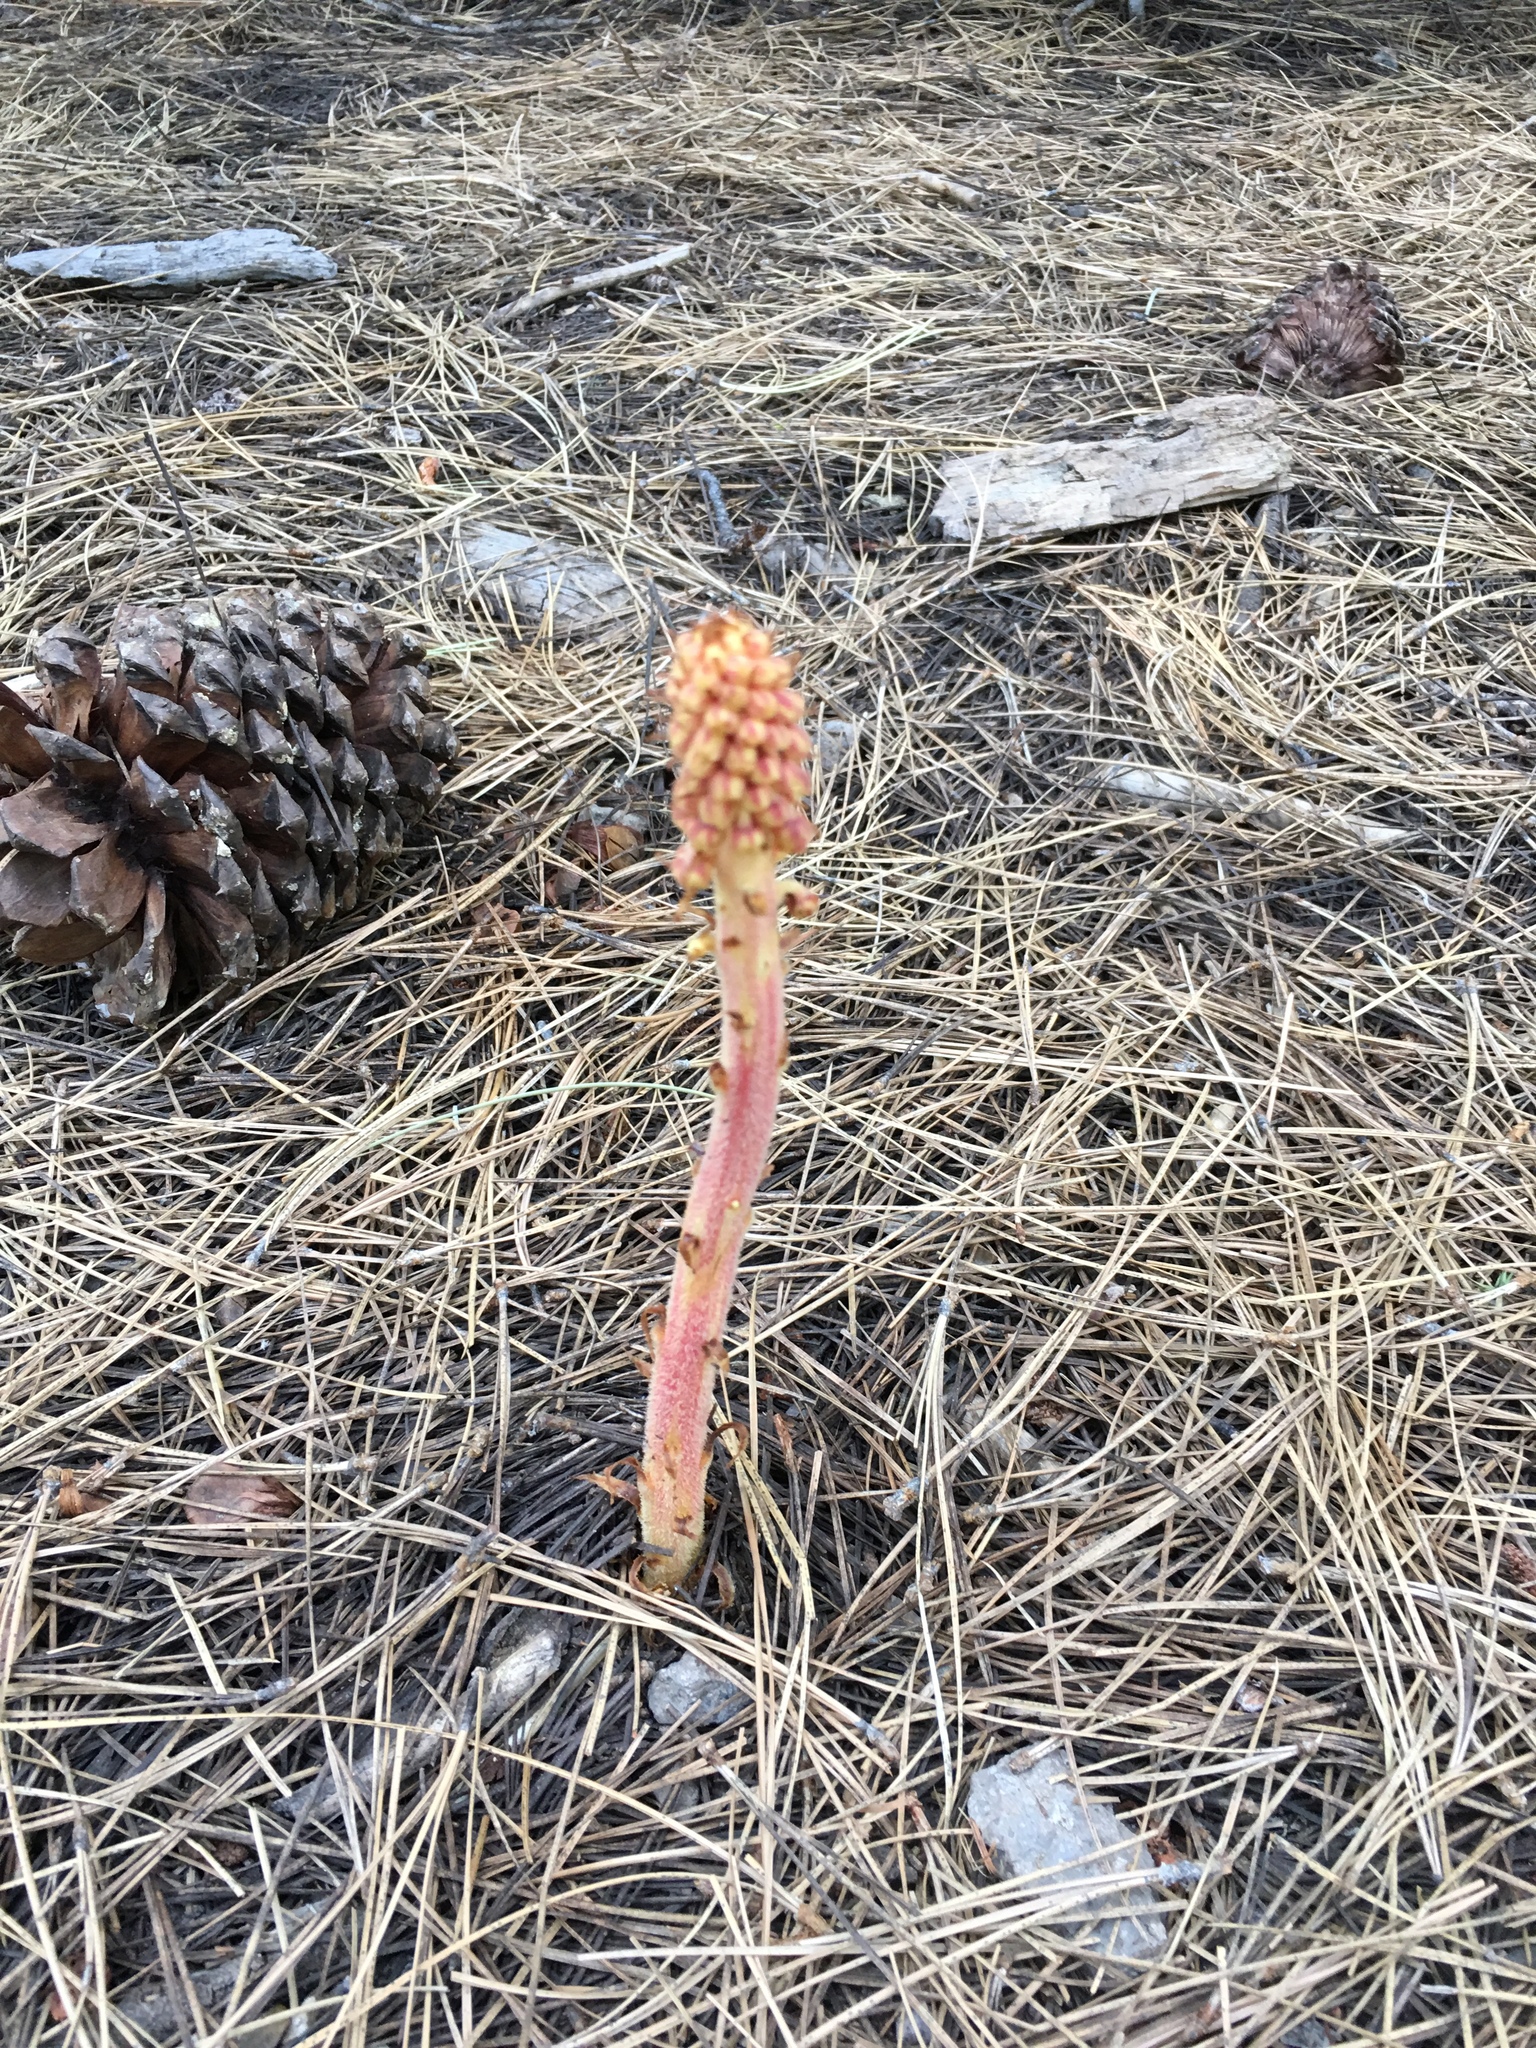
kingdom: Plantae
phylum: Tracheophyta
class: Magnoliopsida
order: Ericales
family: Ericaceae
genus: Pterospora
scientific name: Pterospora andromedea
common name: Giant bird's-nest
